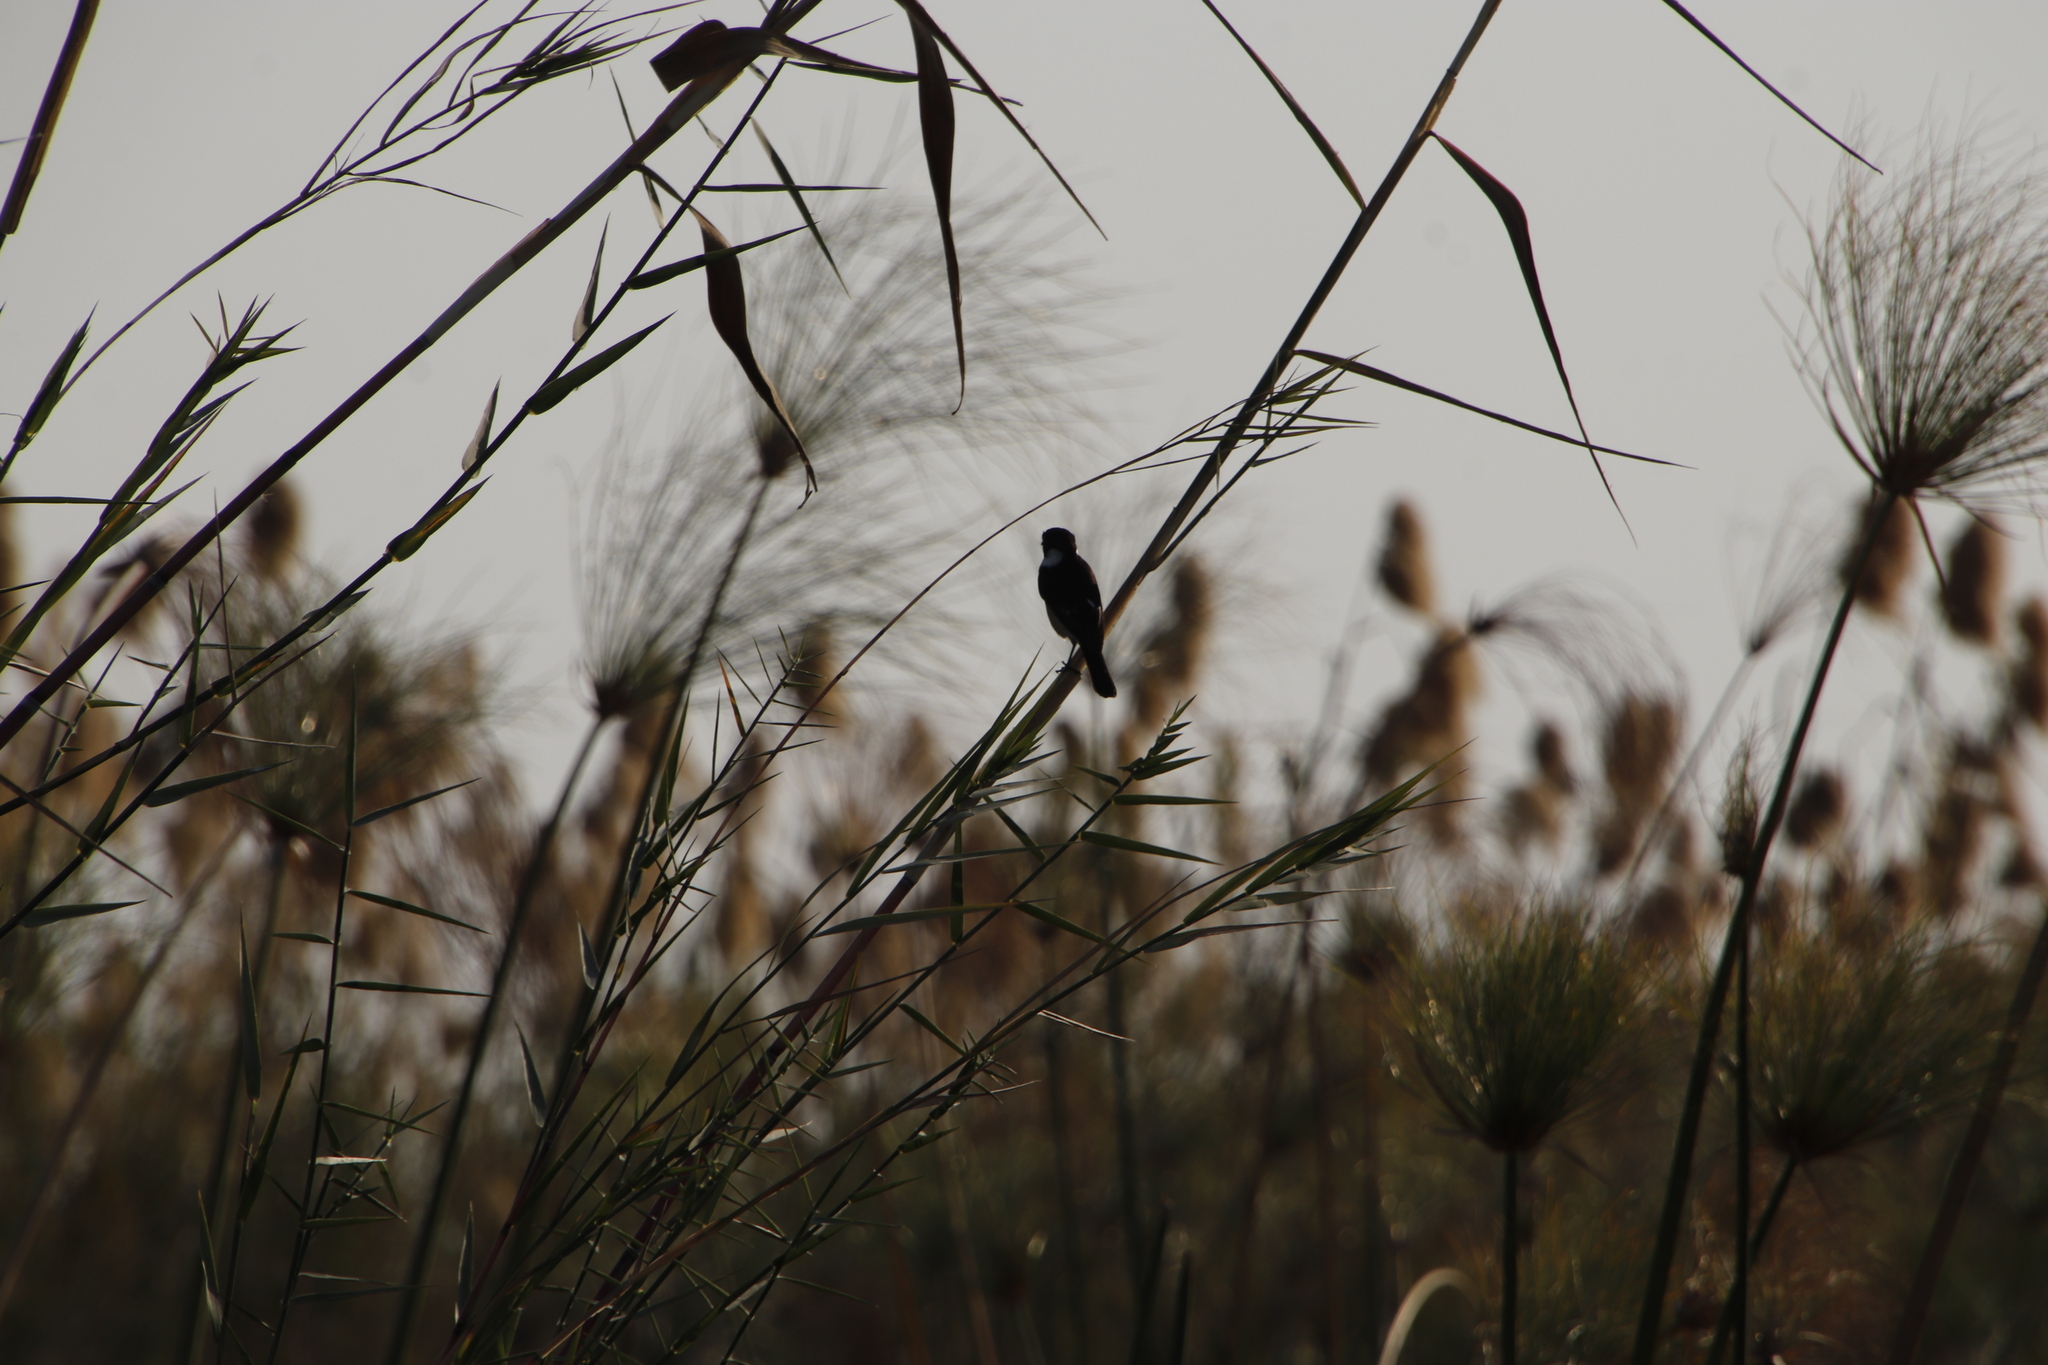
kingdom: Animalia
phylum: Chordata
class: Aves
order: Passeriformes
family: Muscicapidae
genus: Saxicola
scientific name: Saxicola torquatus
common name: African stonechat
